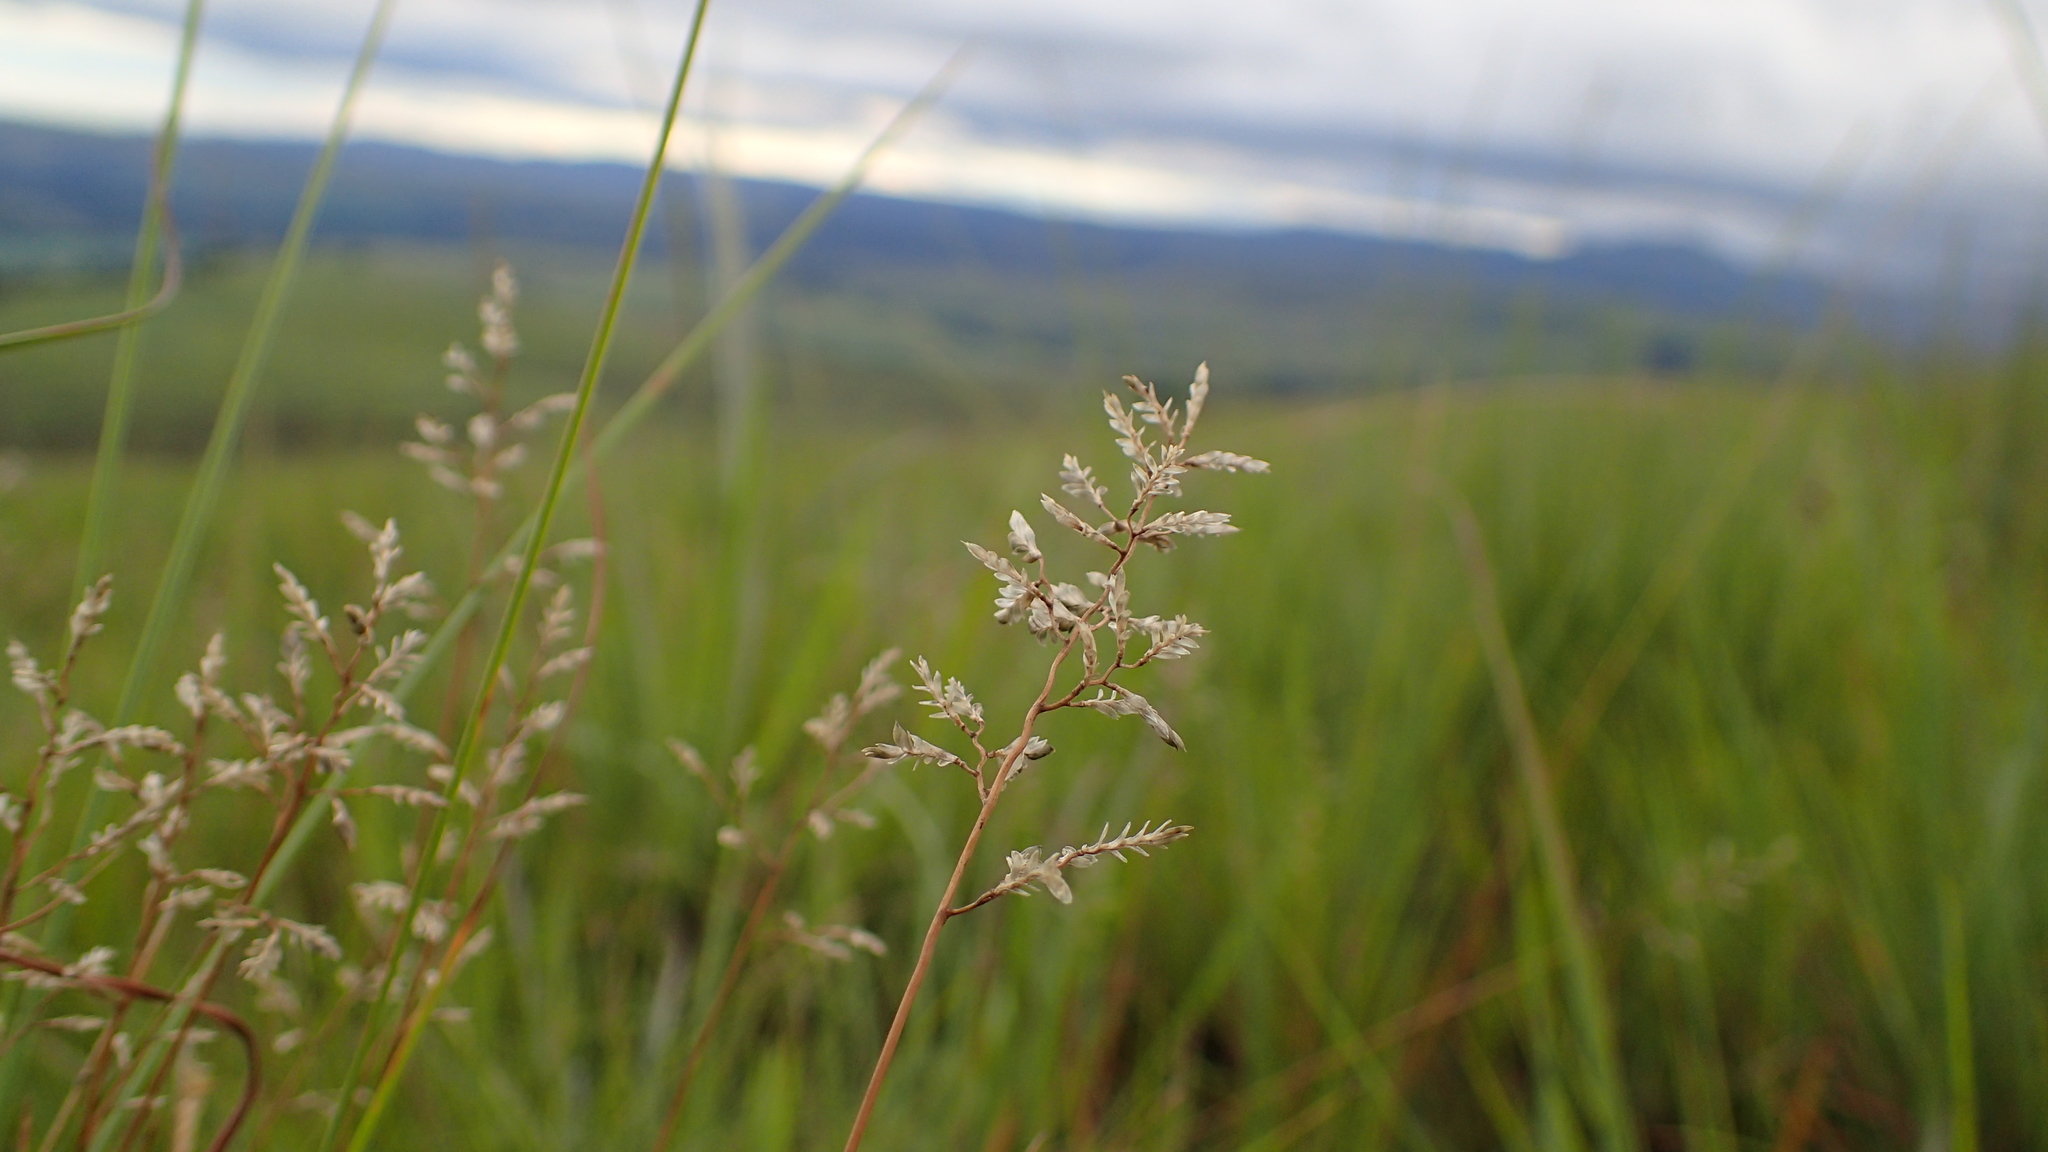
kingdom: Plantae
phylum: Tracheophyta
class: Liliopsida
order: Poales
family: Poaceae
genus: Eragrostis
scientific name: Eragrostis racemosa
